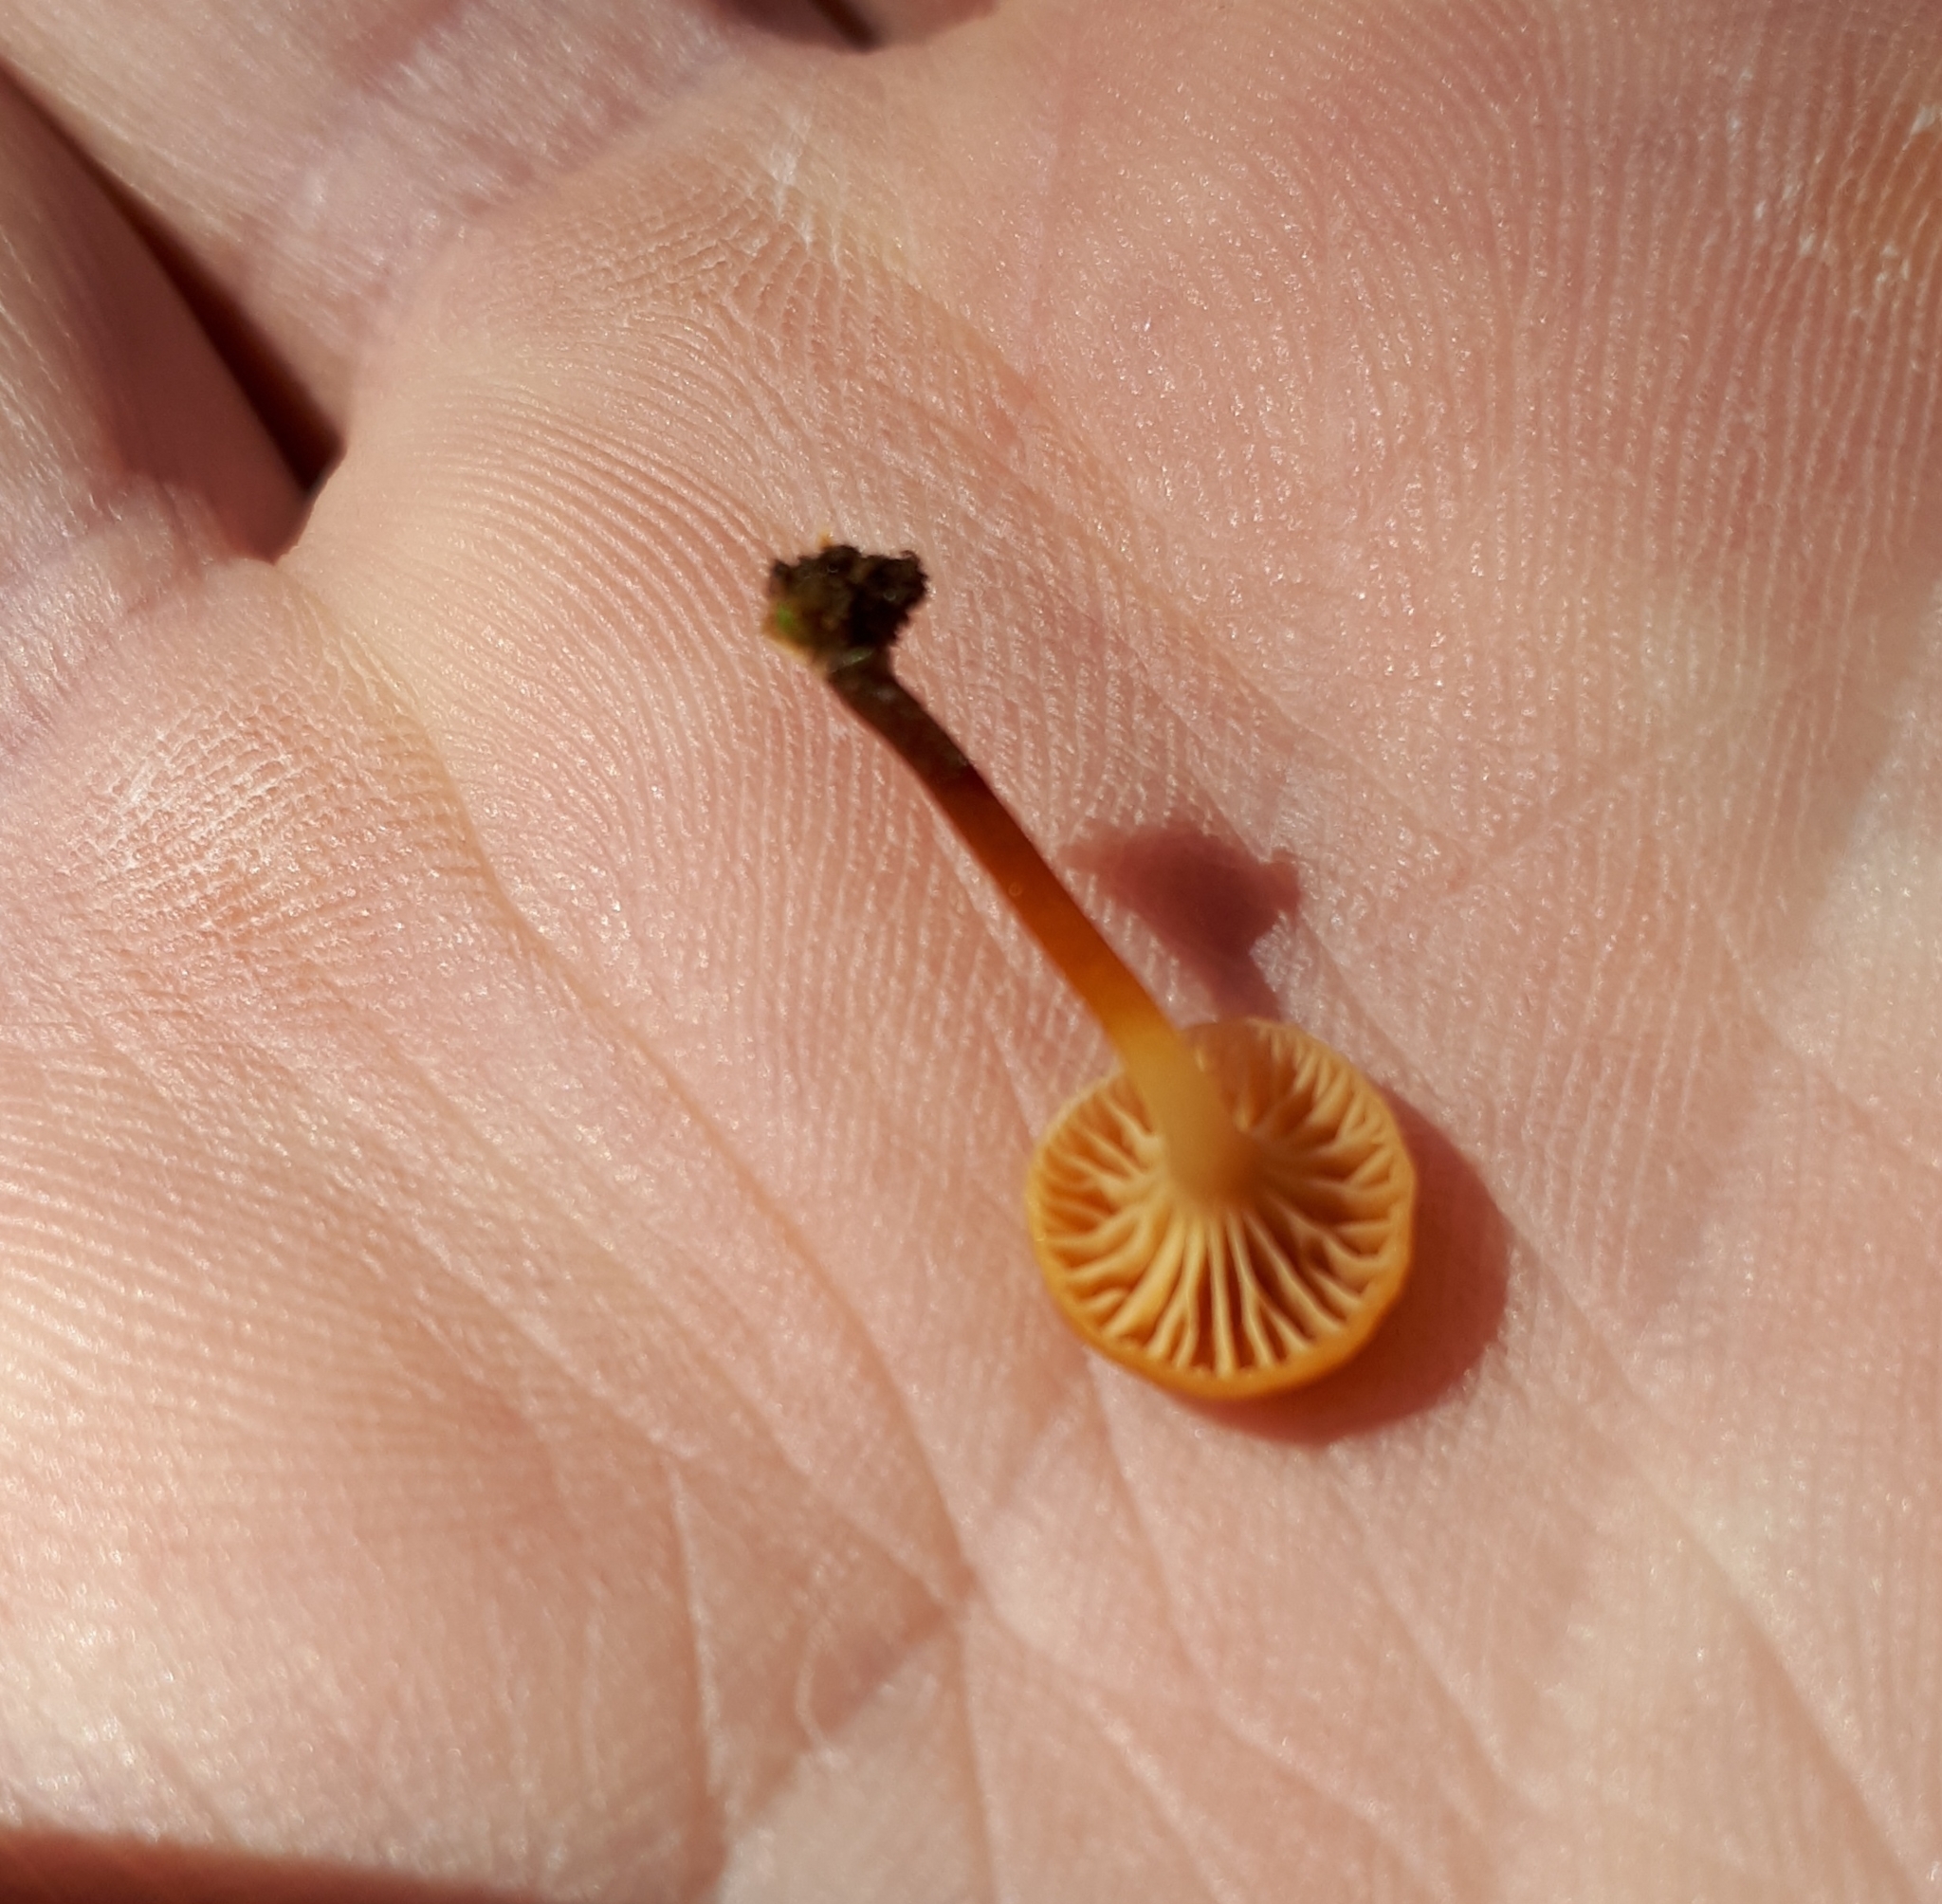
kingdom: Fungi
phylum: Basidiomycota
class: Agaricomycetes
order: Agaricales
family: Mycenaceae
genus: Xeromphalina
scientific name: Xeromphalina campanella
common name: Pinewood gingertail
